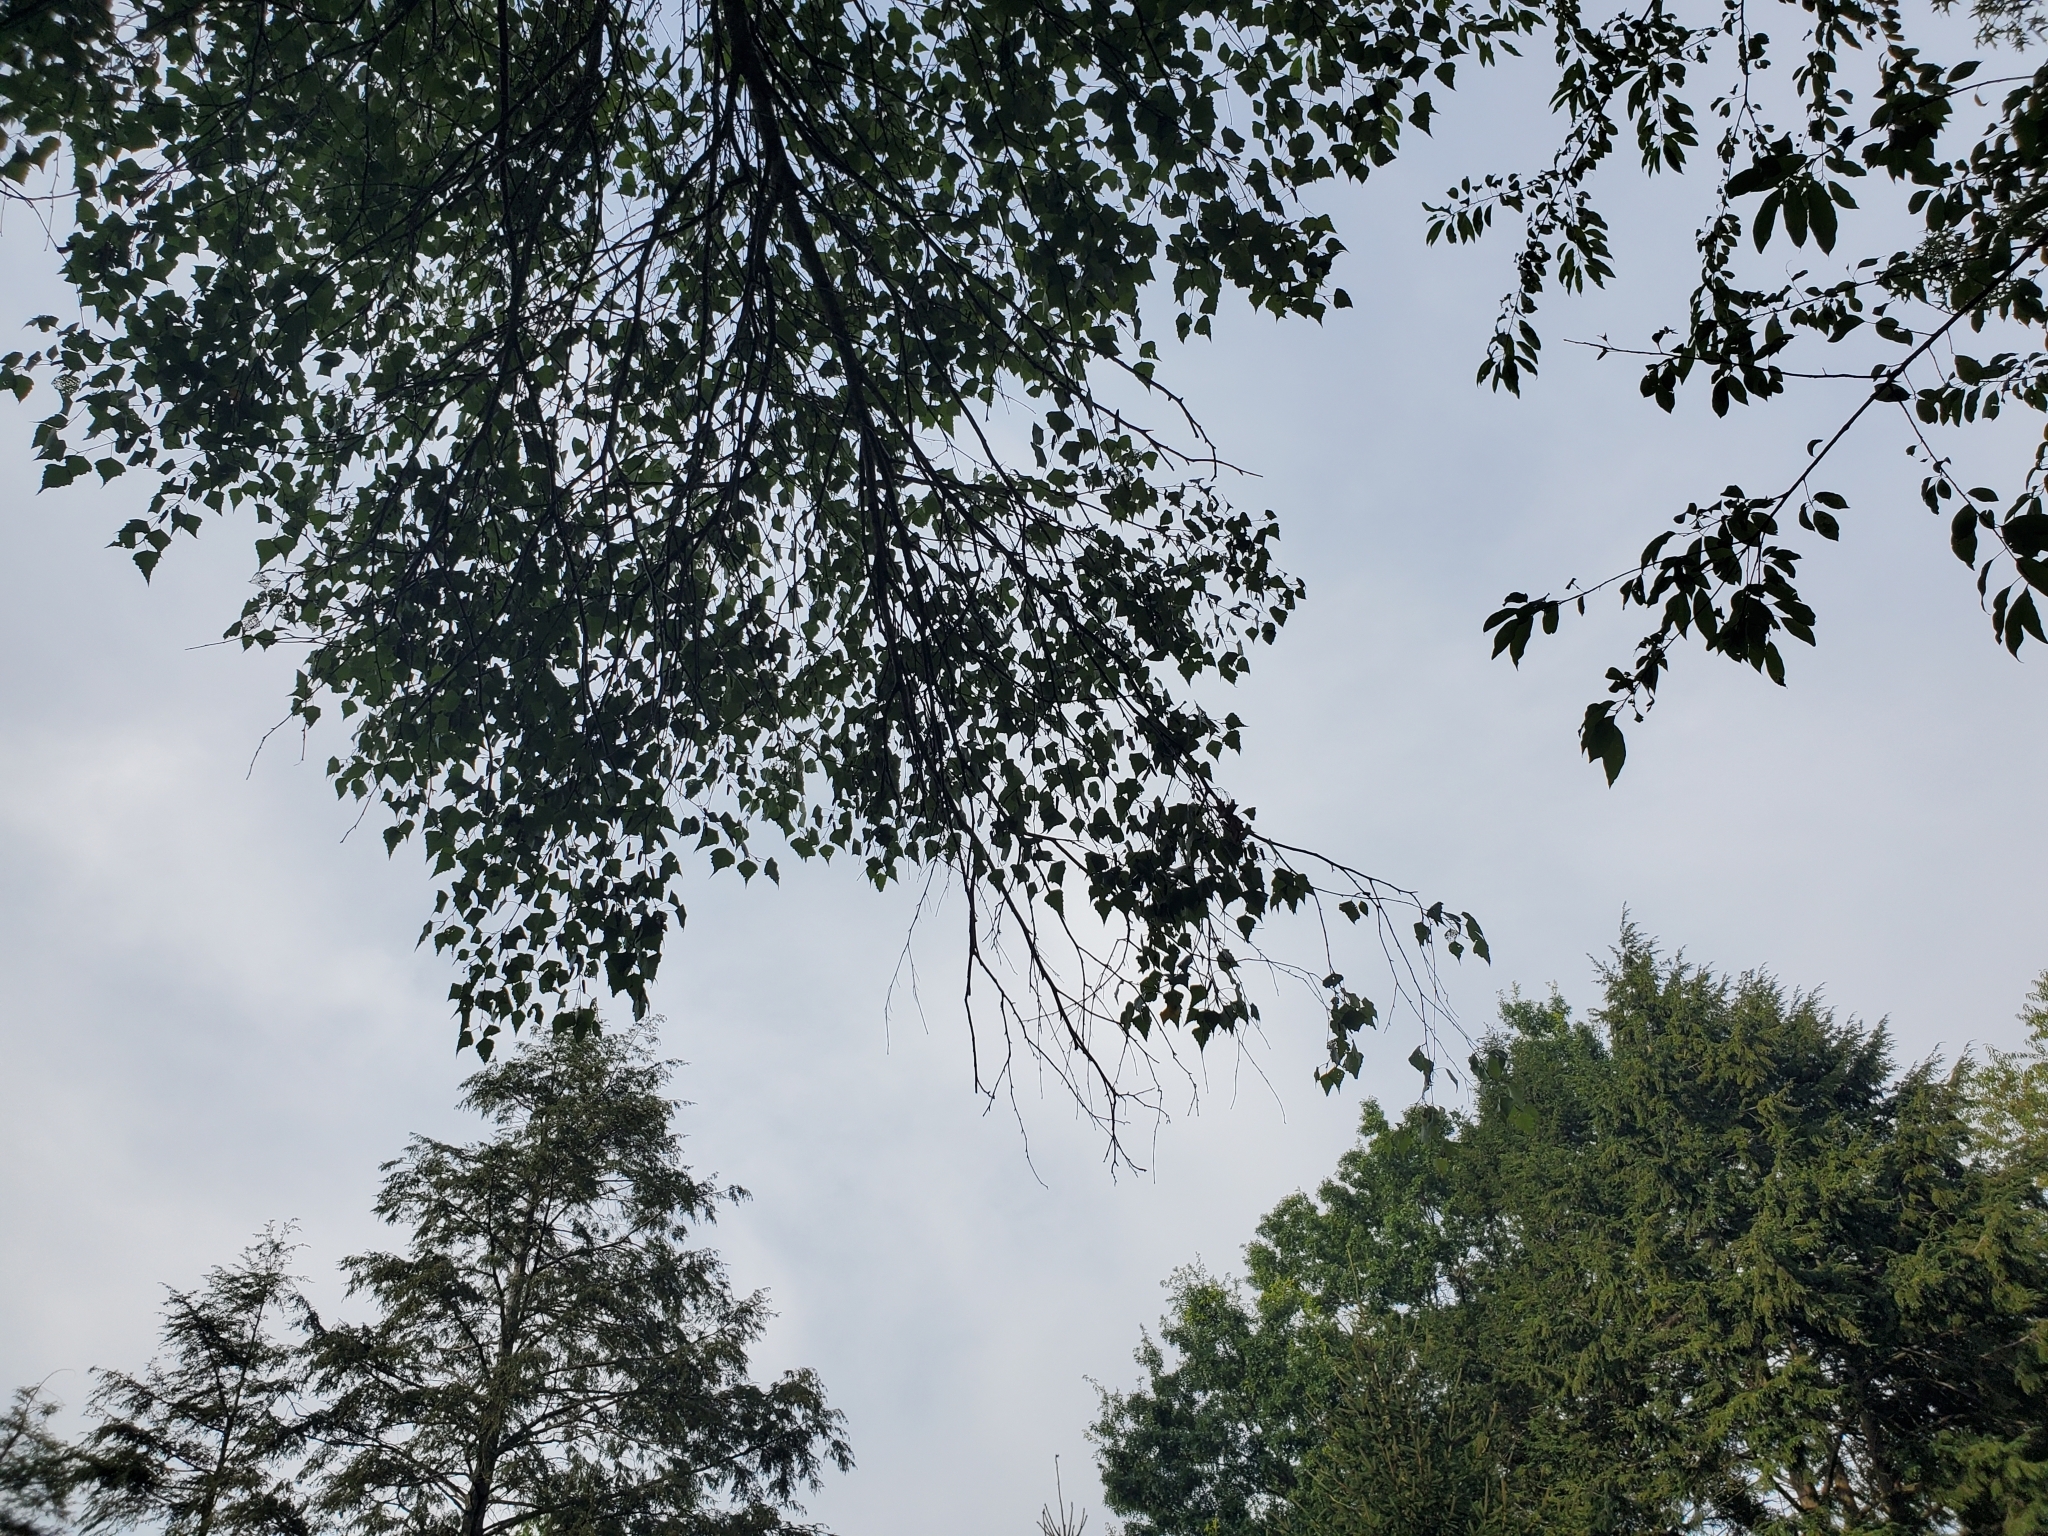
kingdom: Plantae
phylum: Tracheophyta
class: Magnoliopsida
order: Fagales
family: Betulaceae
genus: Betula
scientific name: Betula populifolia
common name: Fire birch
